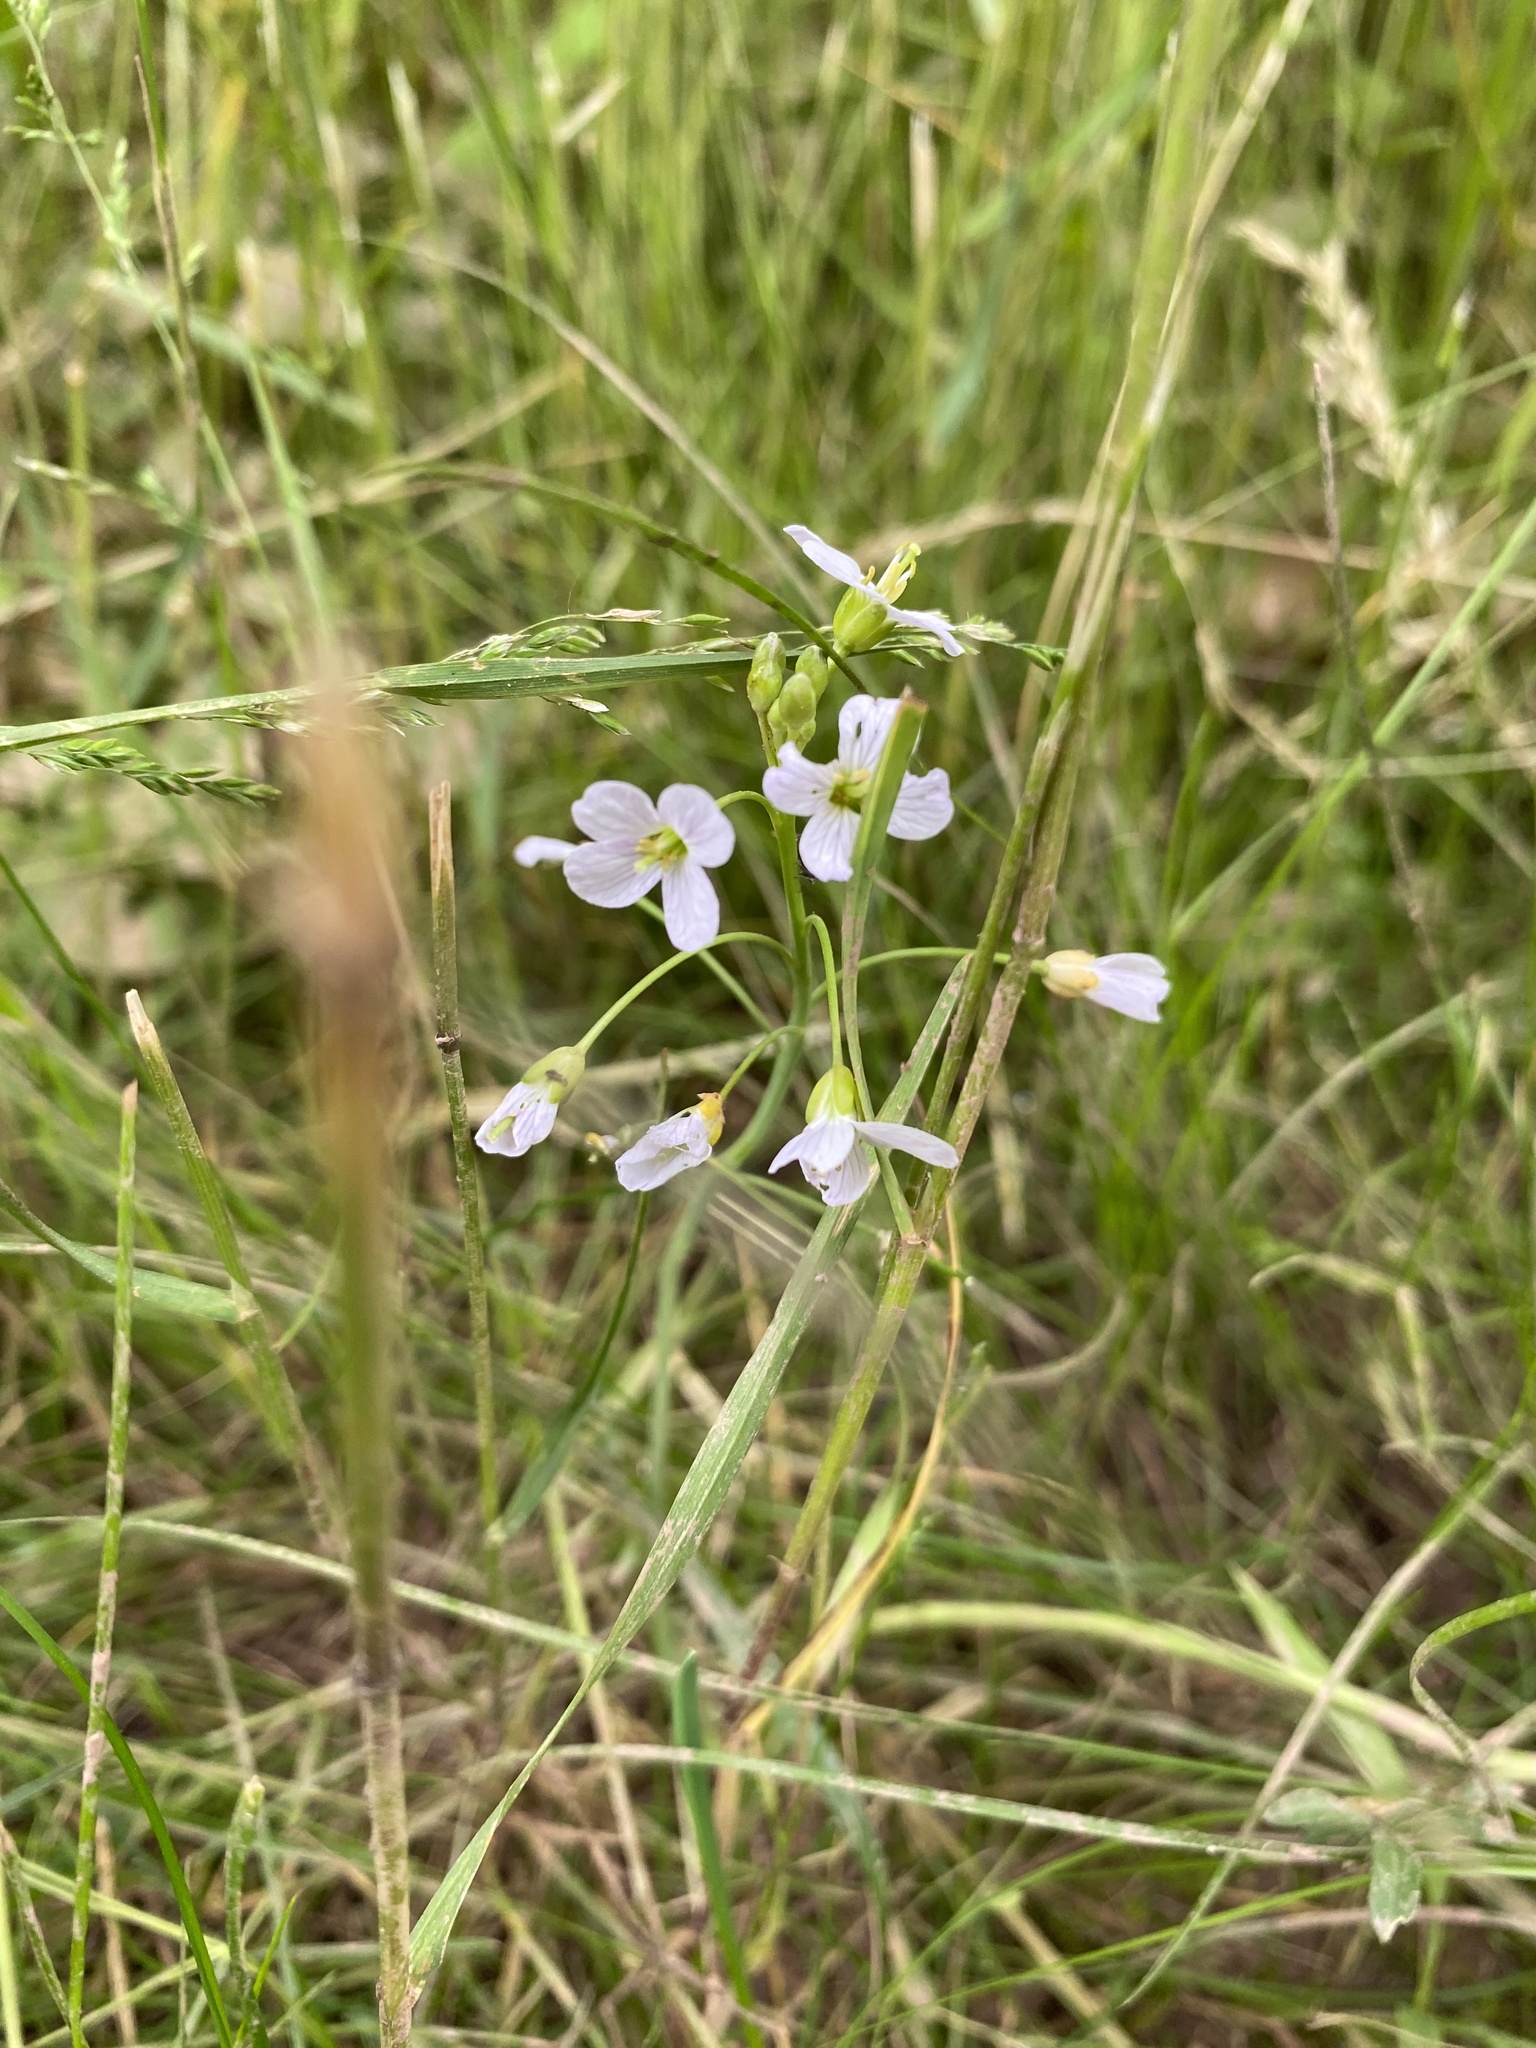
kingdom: Plantae
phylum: Tracheophyta
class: Magnoliopsida
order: Brassicales
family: Brassicaceae
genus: Cardamine
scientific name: Cardamine pratensis
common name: Cuckoo flower
